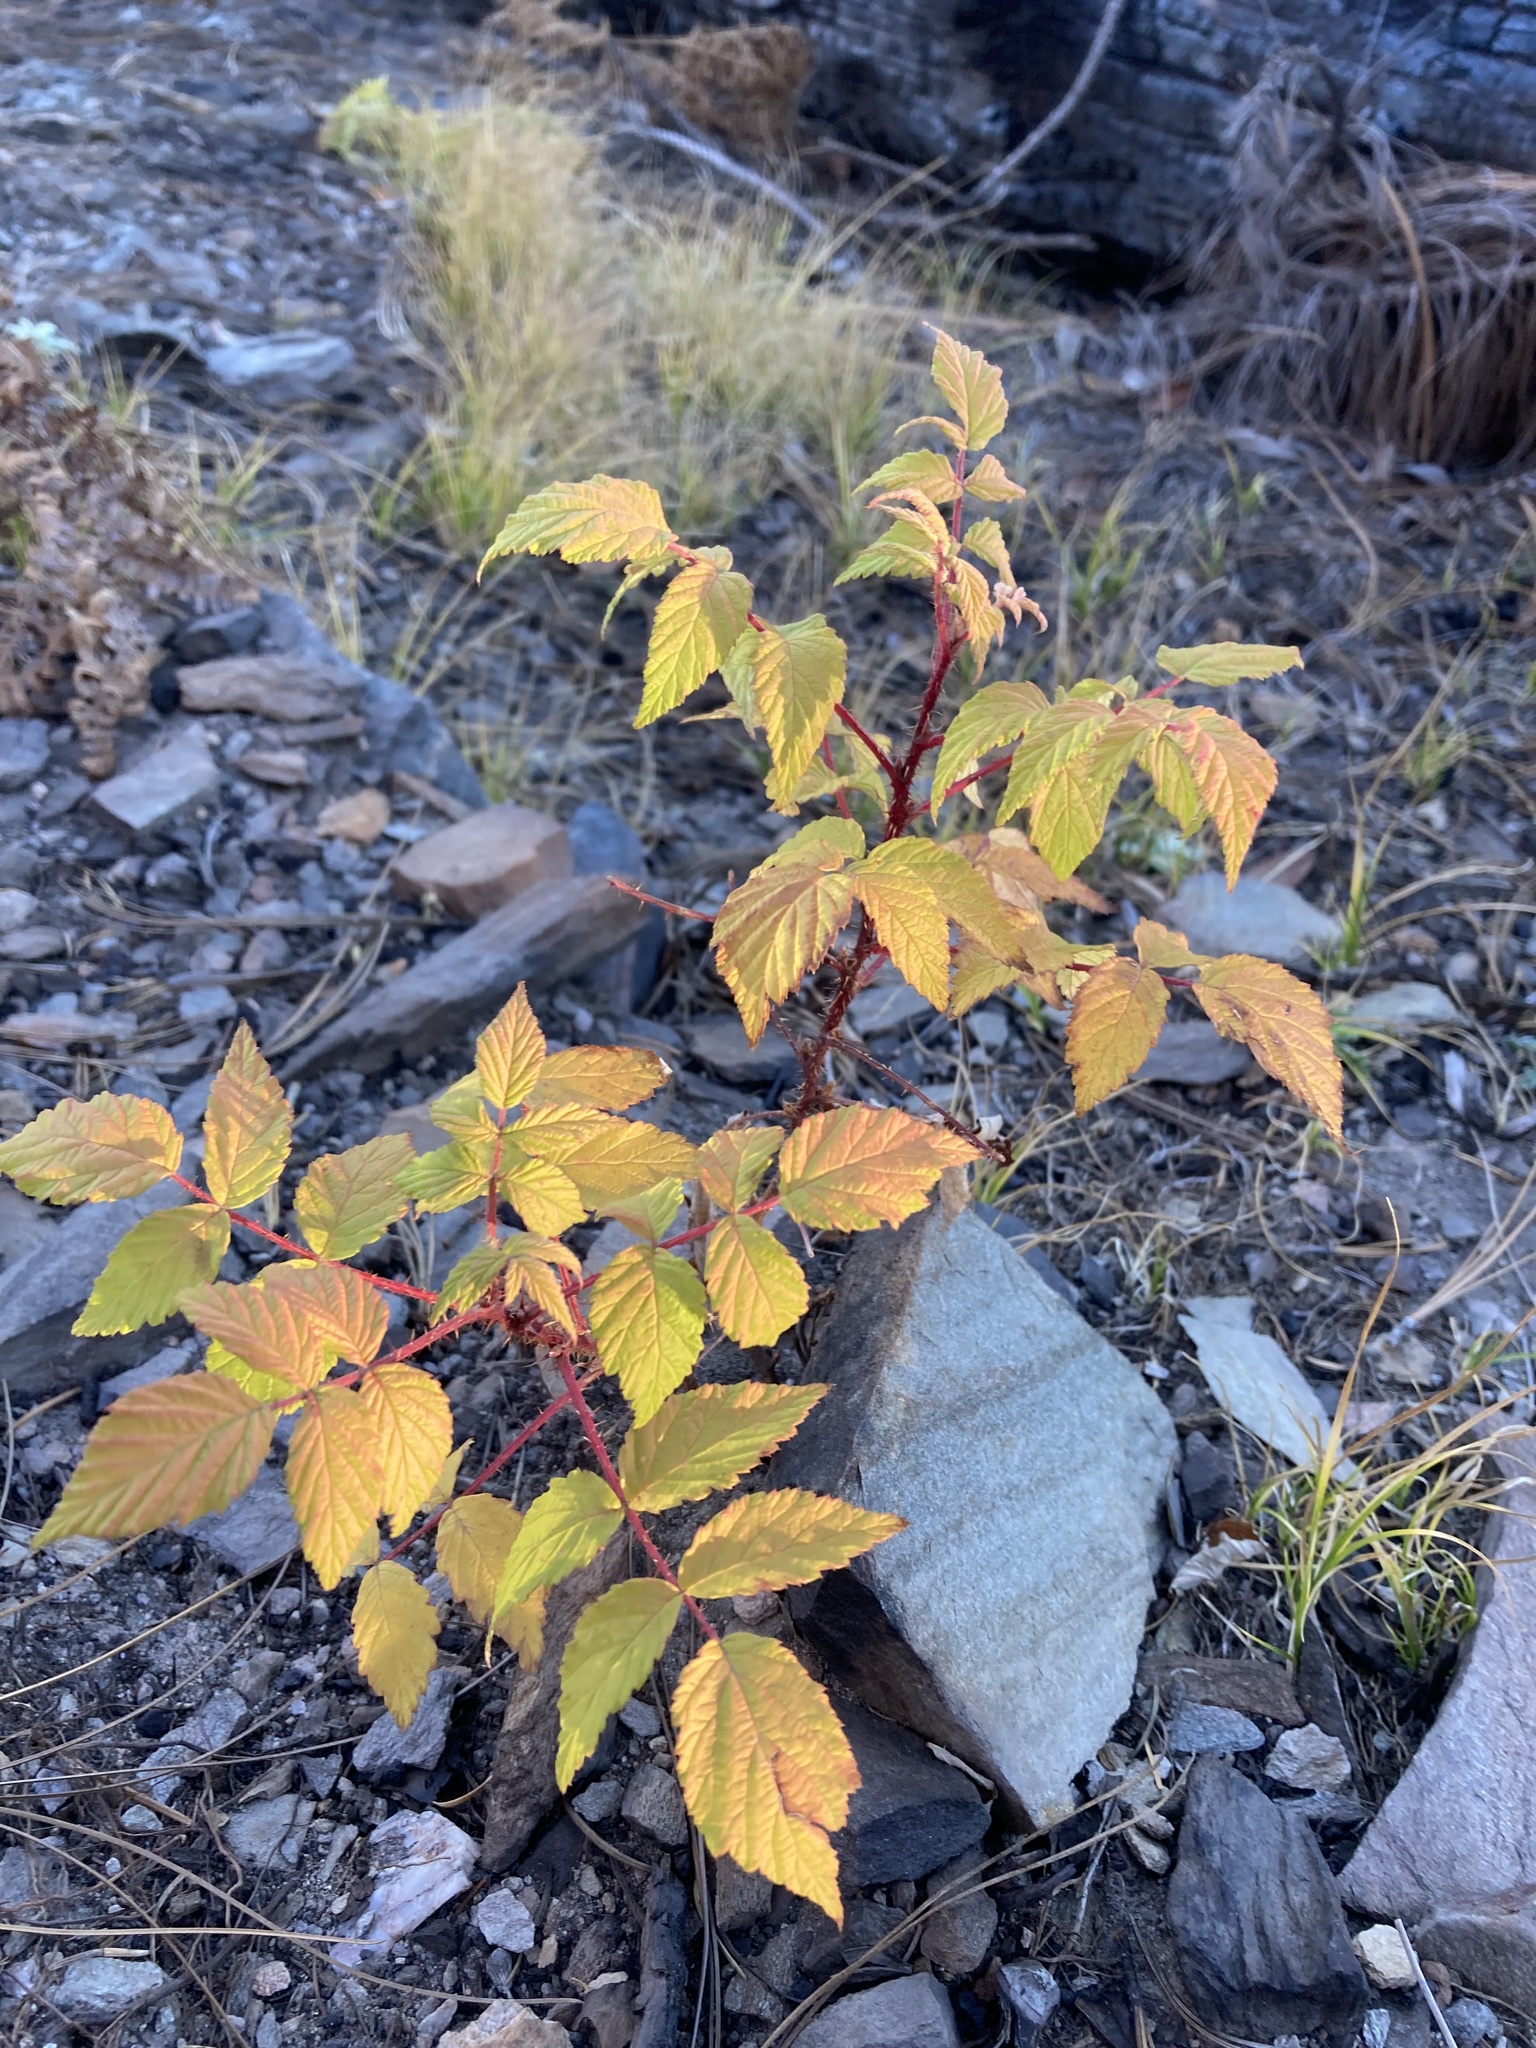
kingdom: Plantae
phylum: Tracheophyta
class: Magnoliopsida
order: Rosales
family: Rosaceae
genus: Rubus
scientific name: Rubus idaeus
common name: Raspberry
